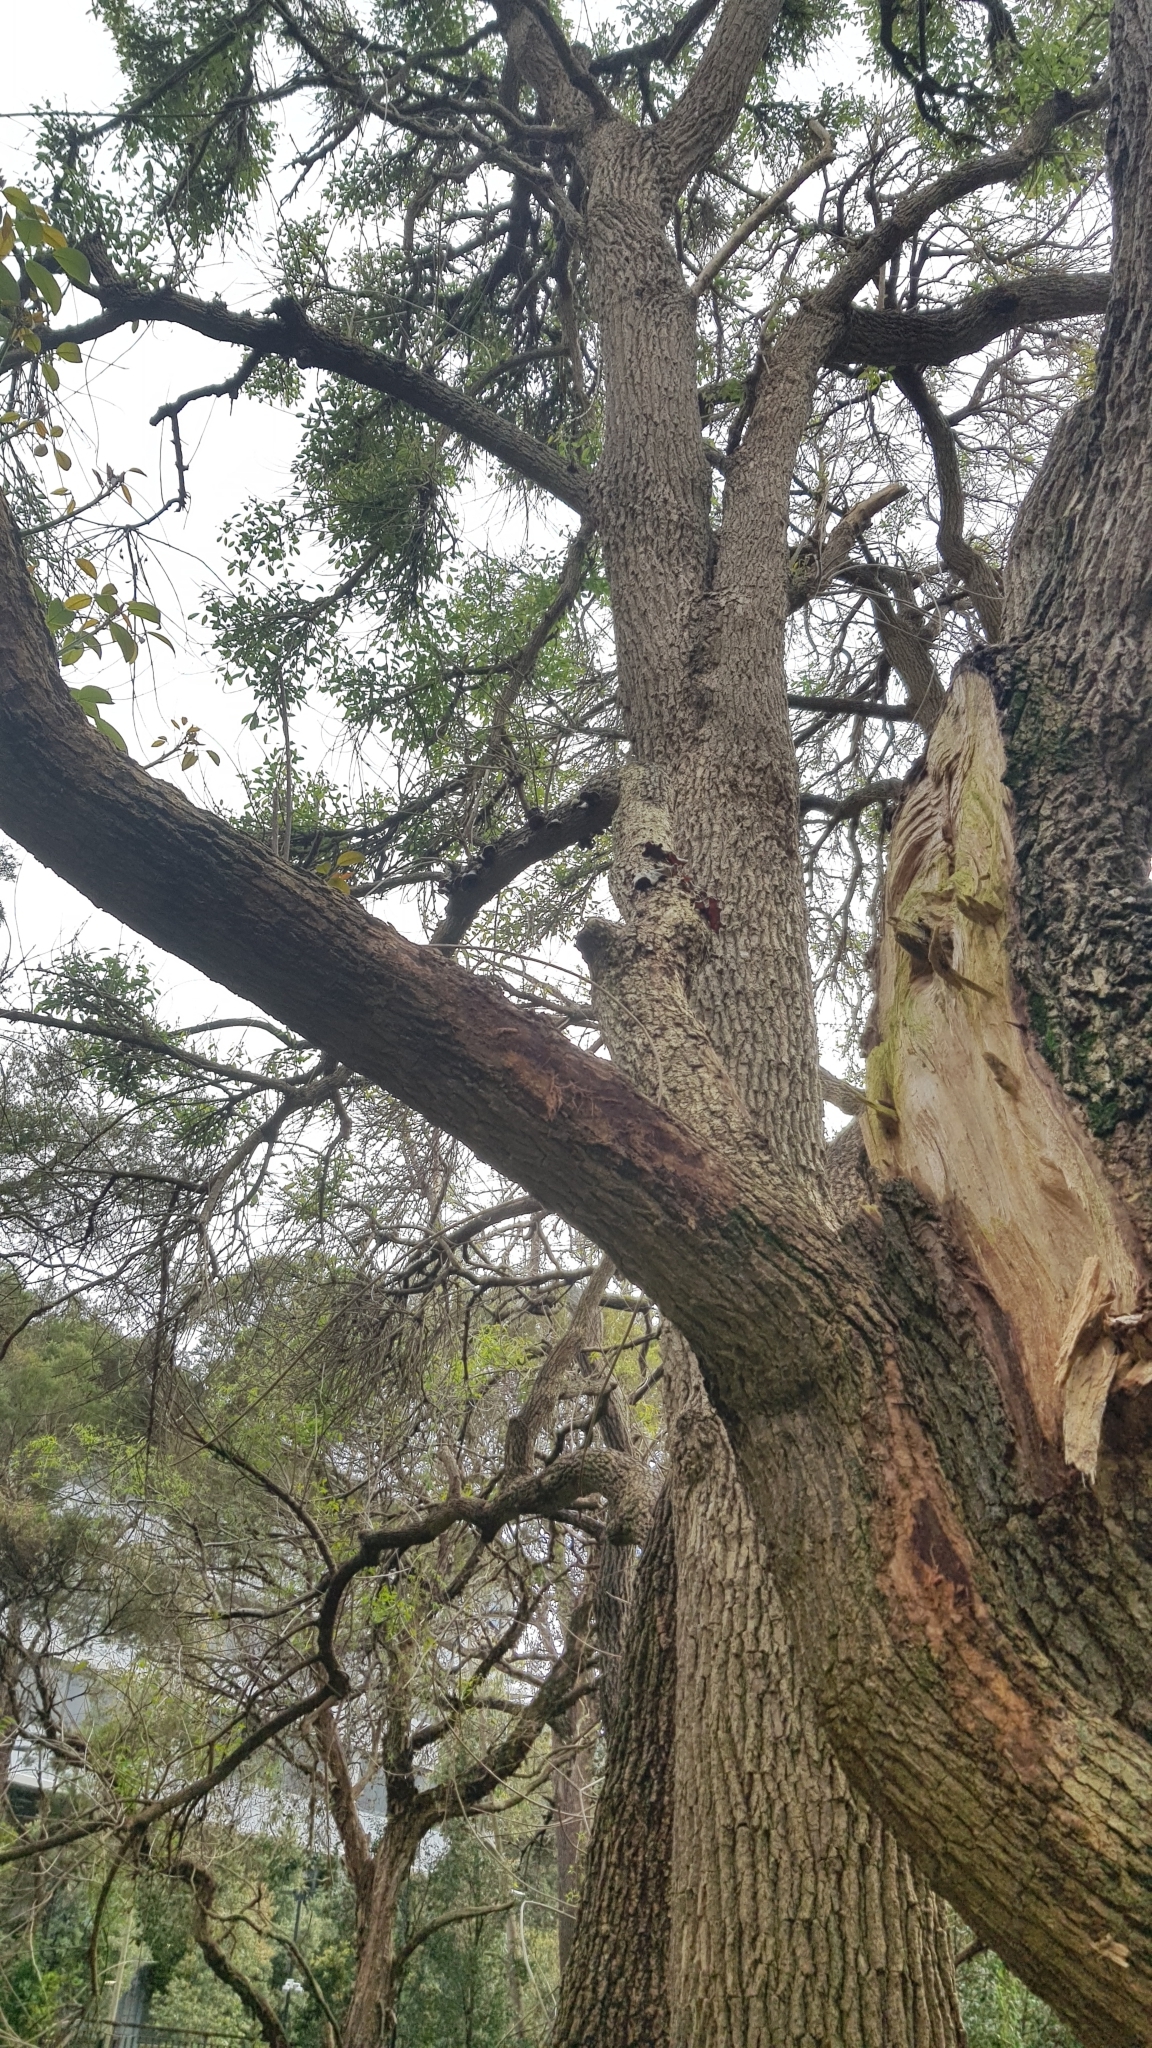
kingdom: Fungi
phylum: Basidiomycota
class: Agaricomycetes
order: Auriculariales
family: Auriculariaceae
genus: Auricularia
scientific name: Auricularia cornea
